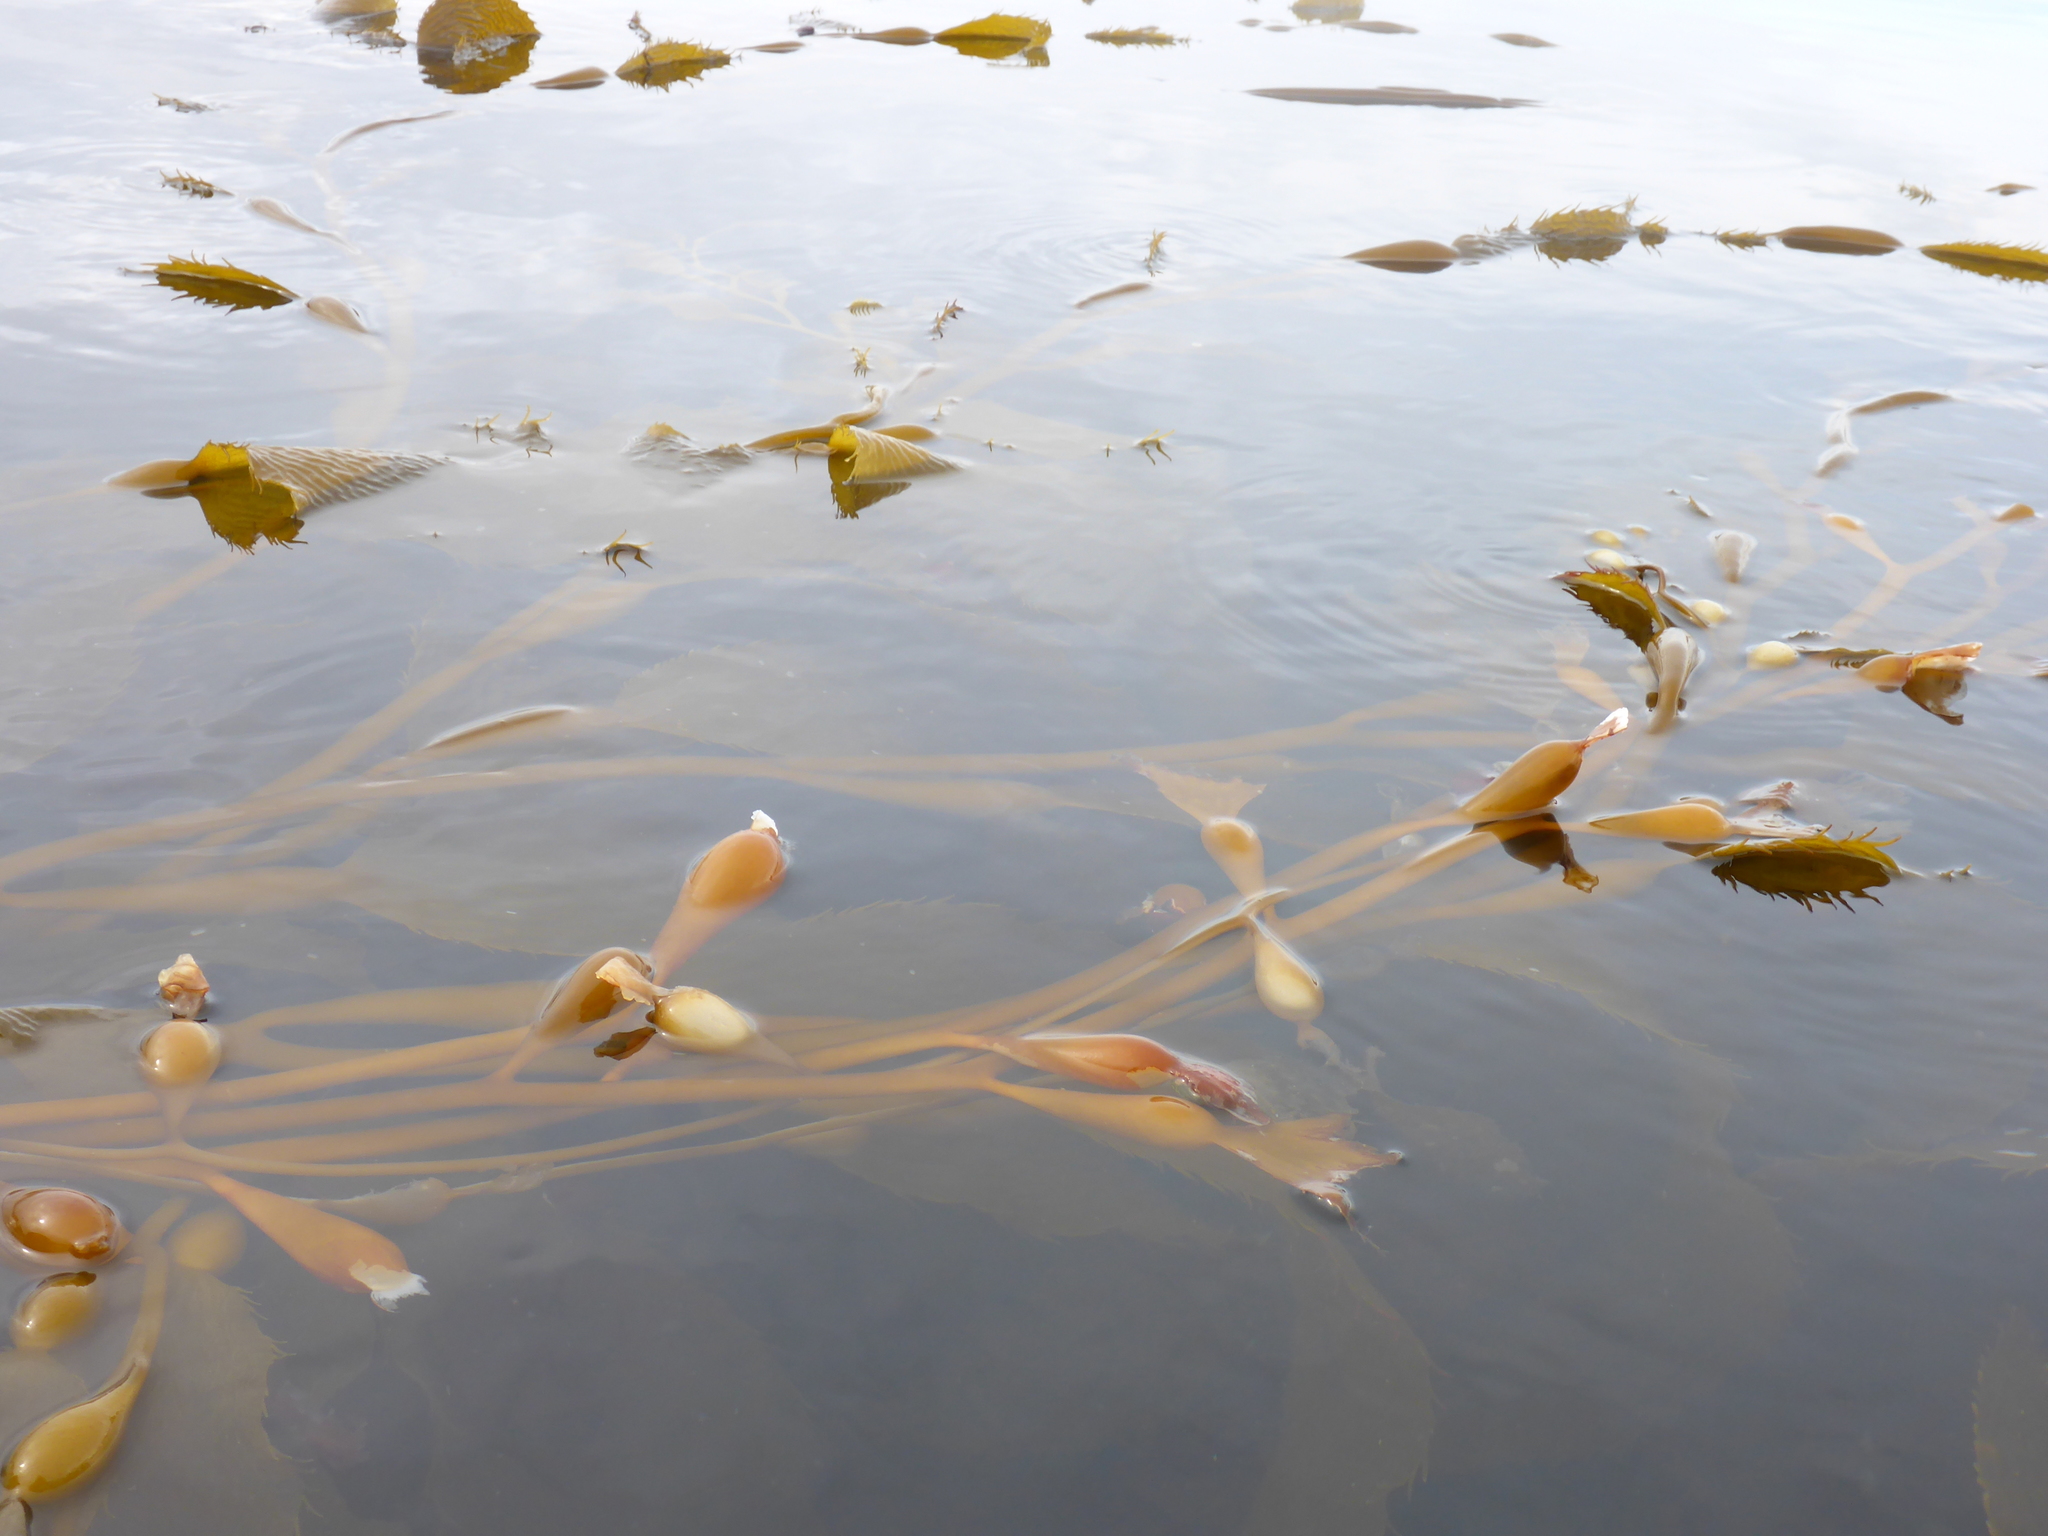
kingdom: Chromista
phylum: Ochrophyta
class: Phaeophyceae
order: Laminariales
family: Laminariaceae
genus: Macrocystis
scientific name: Macrocystis pyrifera
